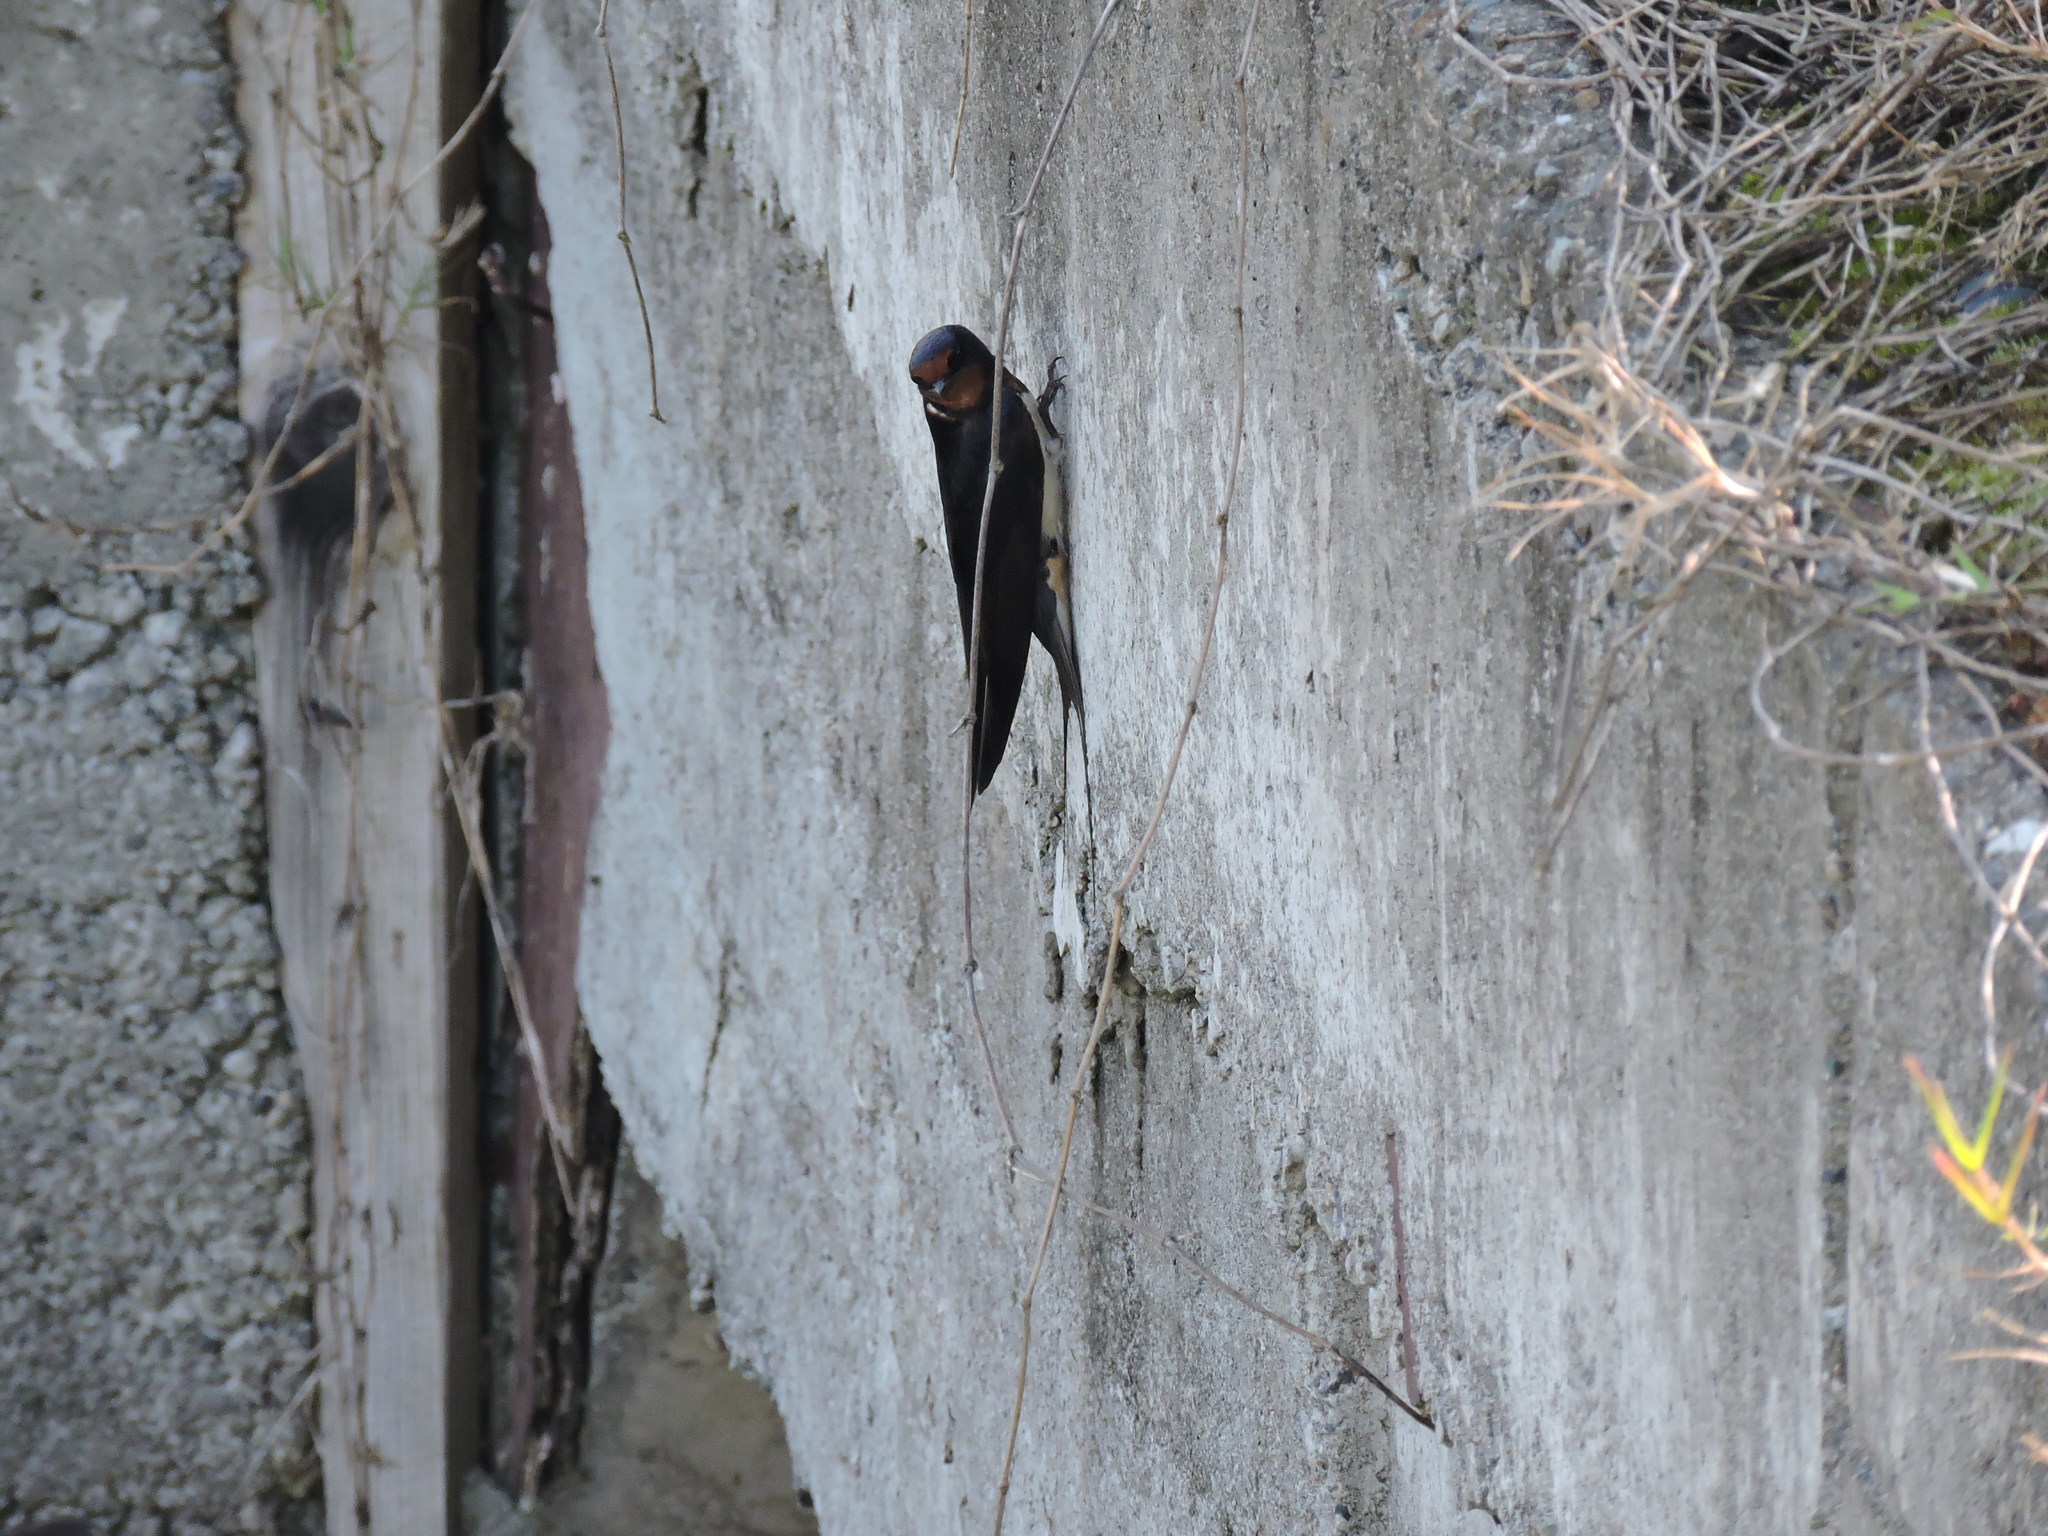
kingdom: Animalia
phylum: Chordata
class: Aves
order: Passeriformes
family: Hirundinidae
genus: Hirundo
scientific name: Hirundo rustica
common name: Barn swallow
